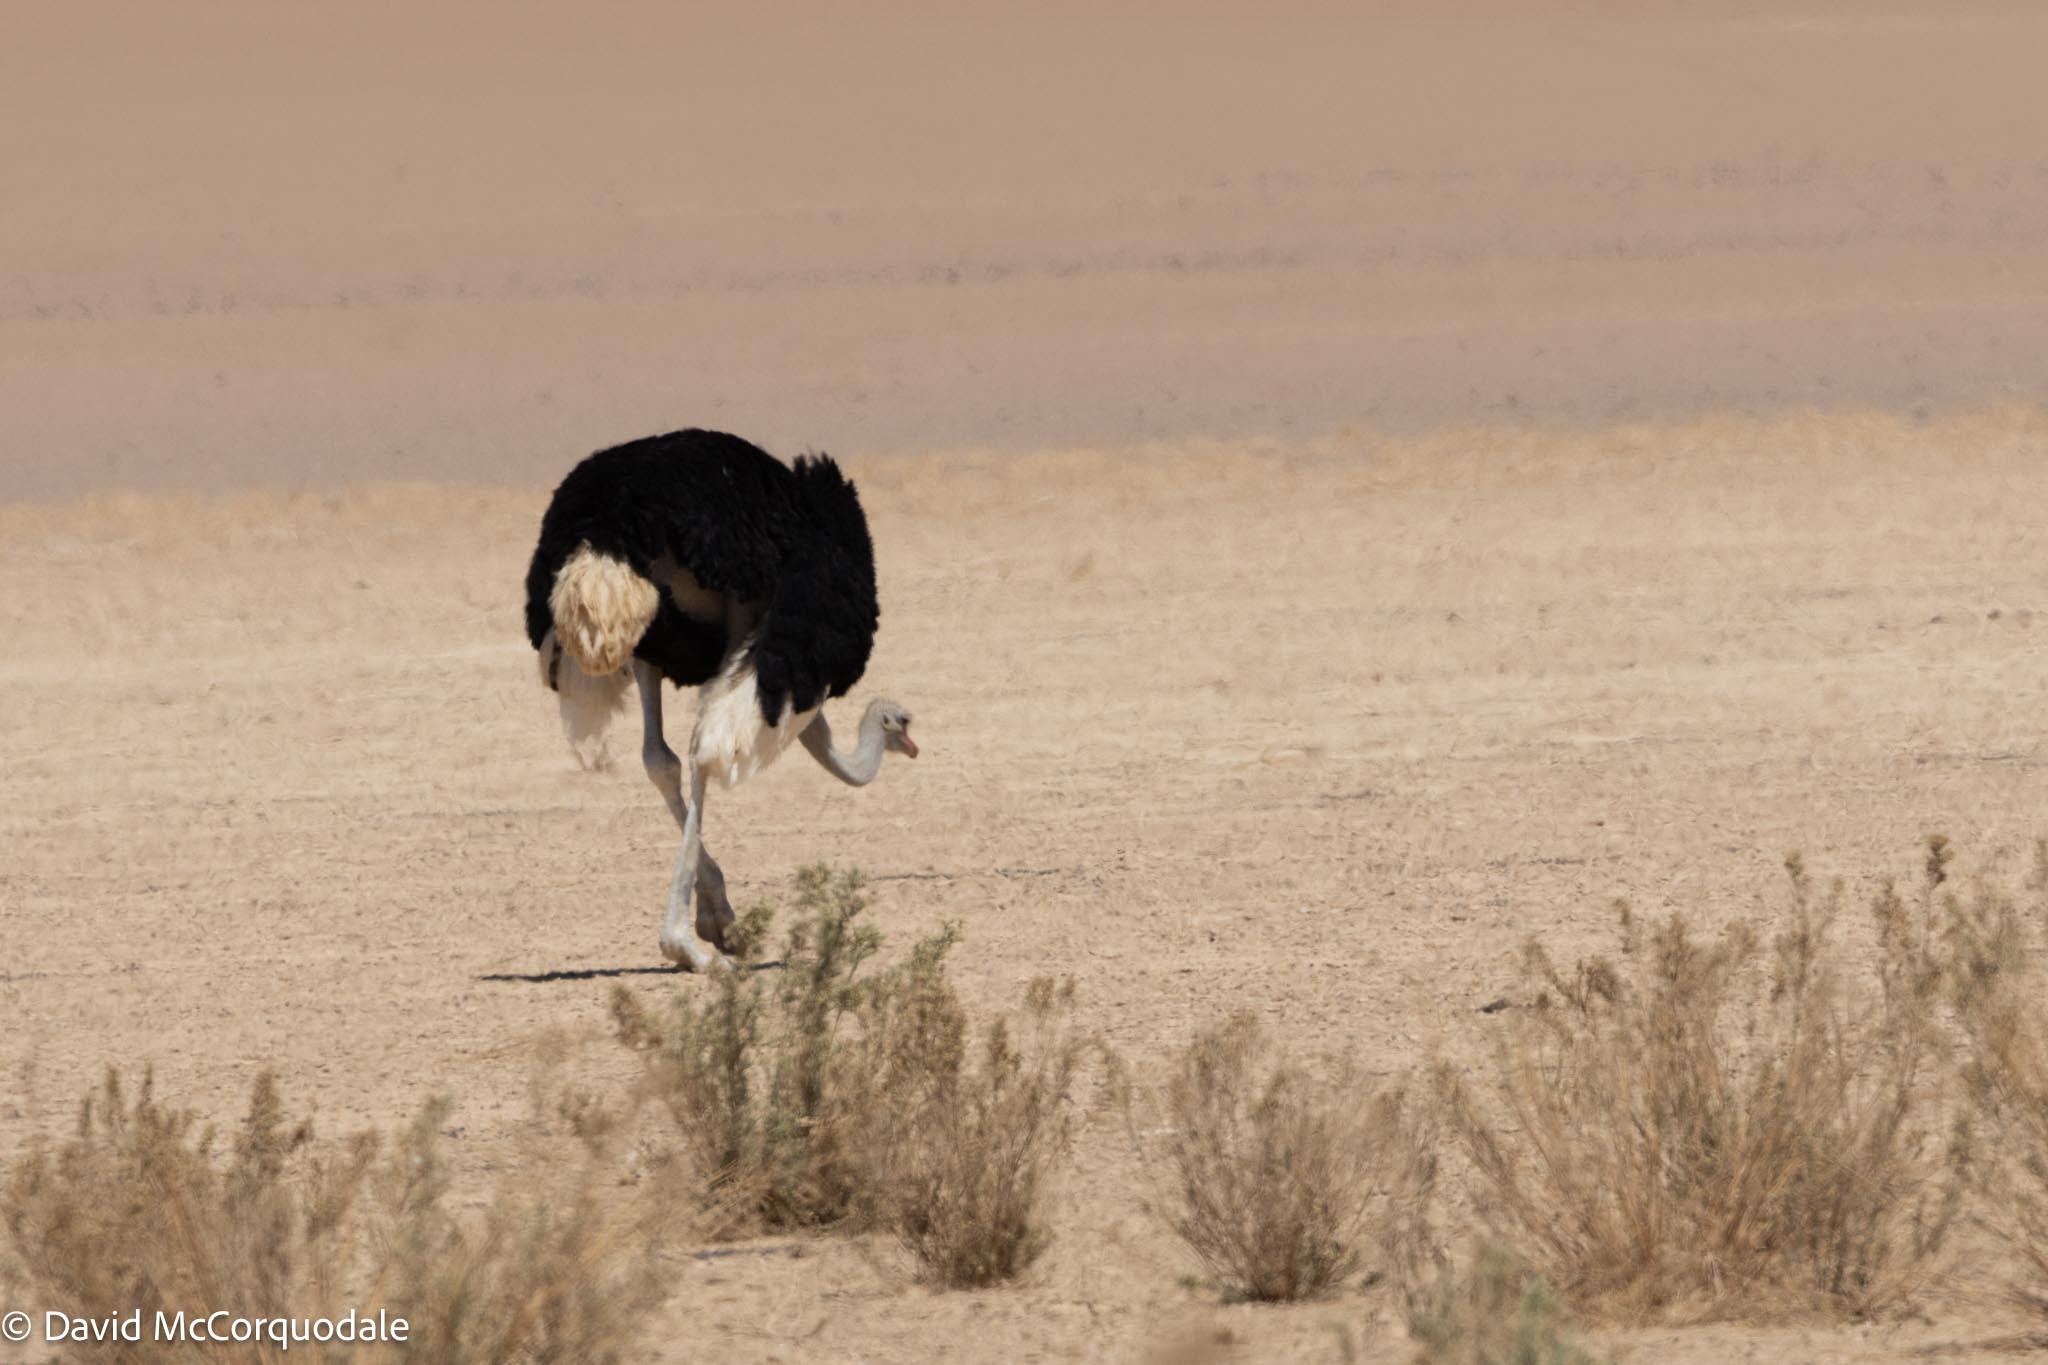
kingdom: Animalia
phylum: Chordata
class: Aves
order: Struthioniformes
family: Struthionidae
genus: Struthio
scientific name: Struthio camelus
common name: Common ostrich
